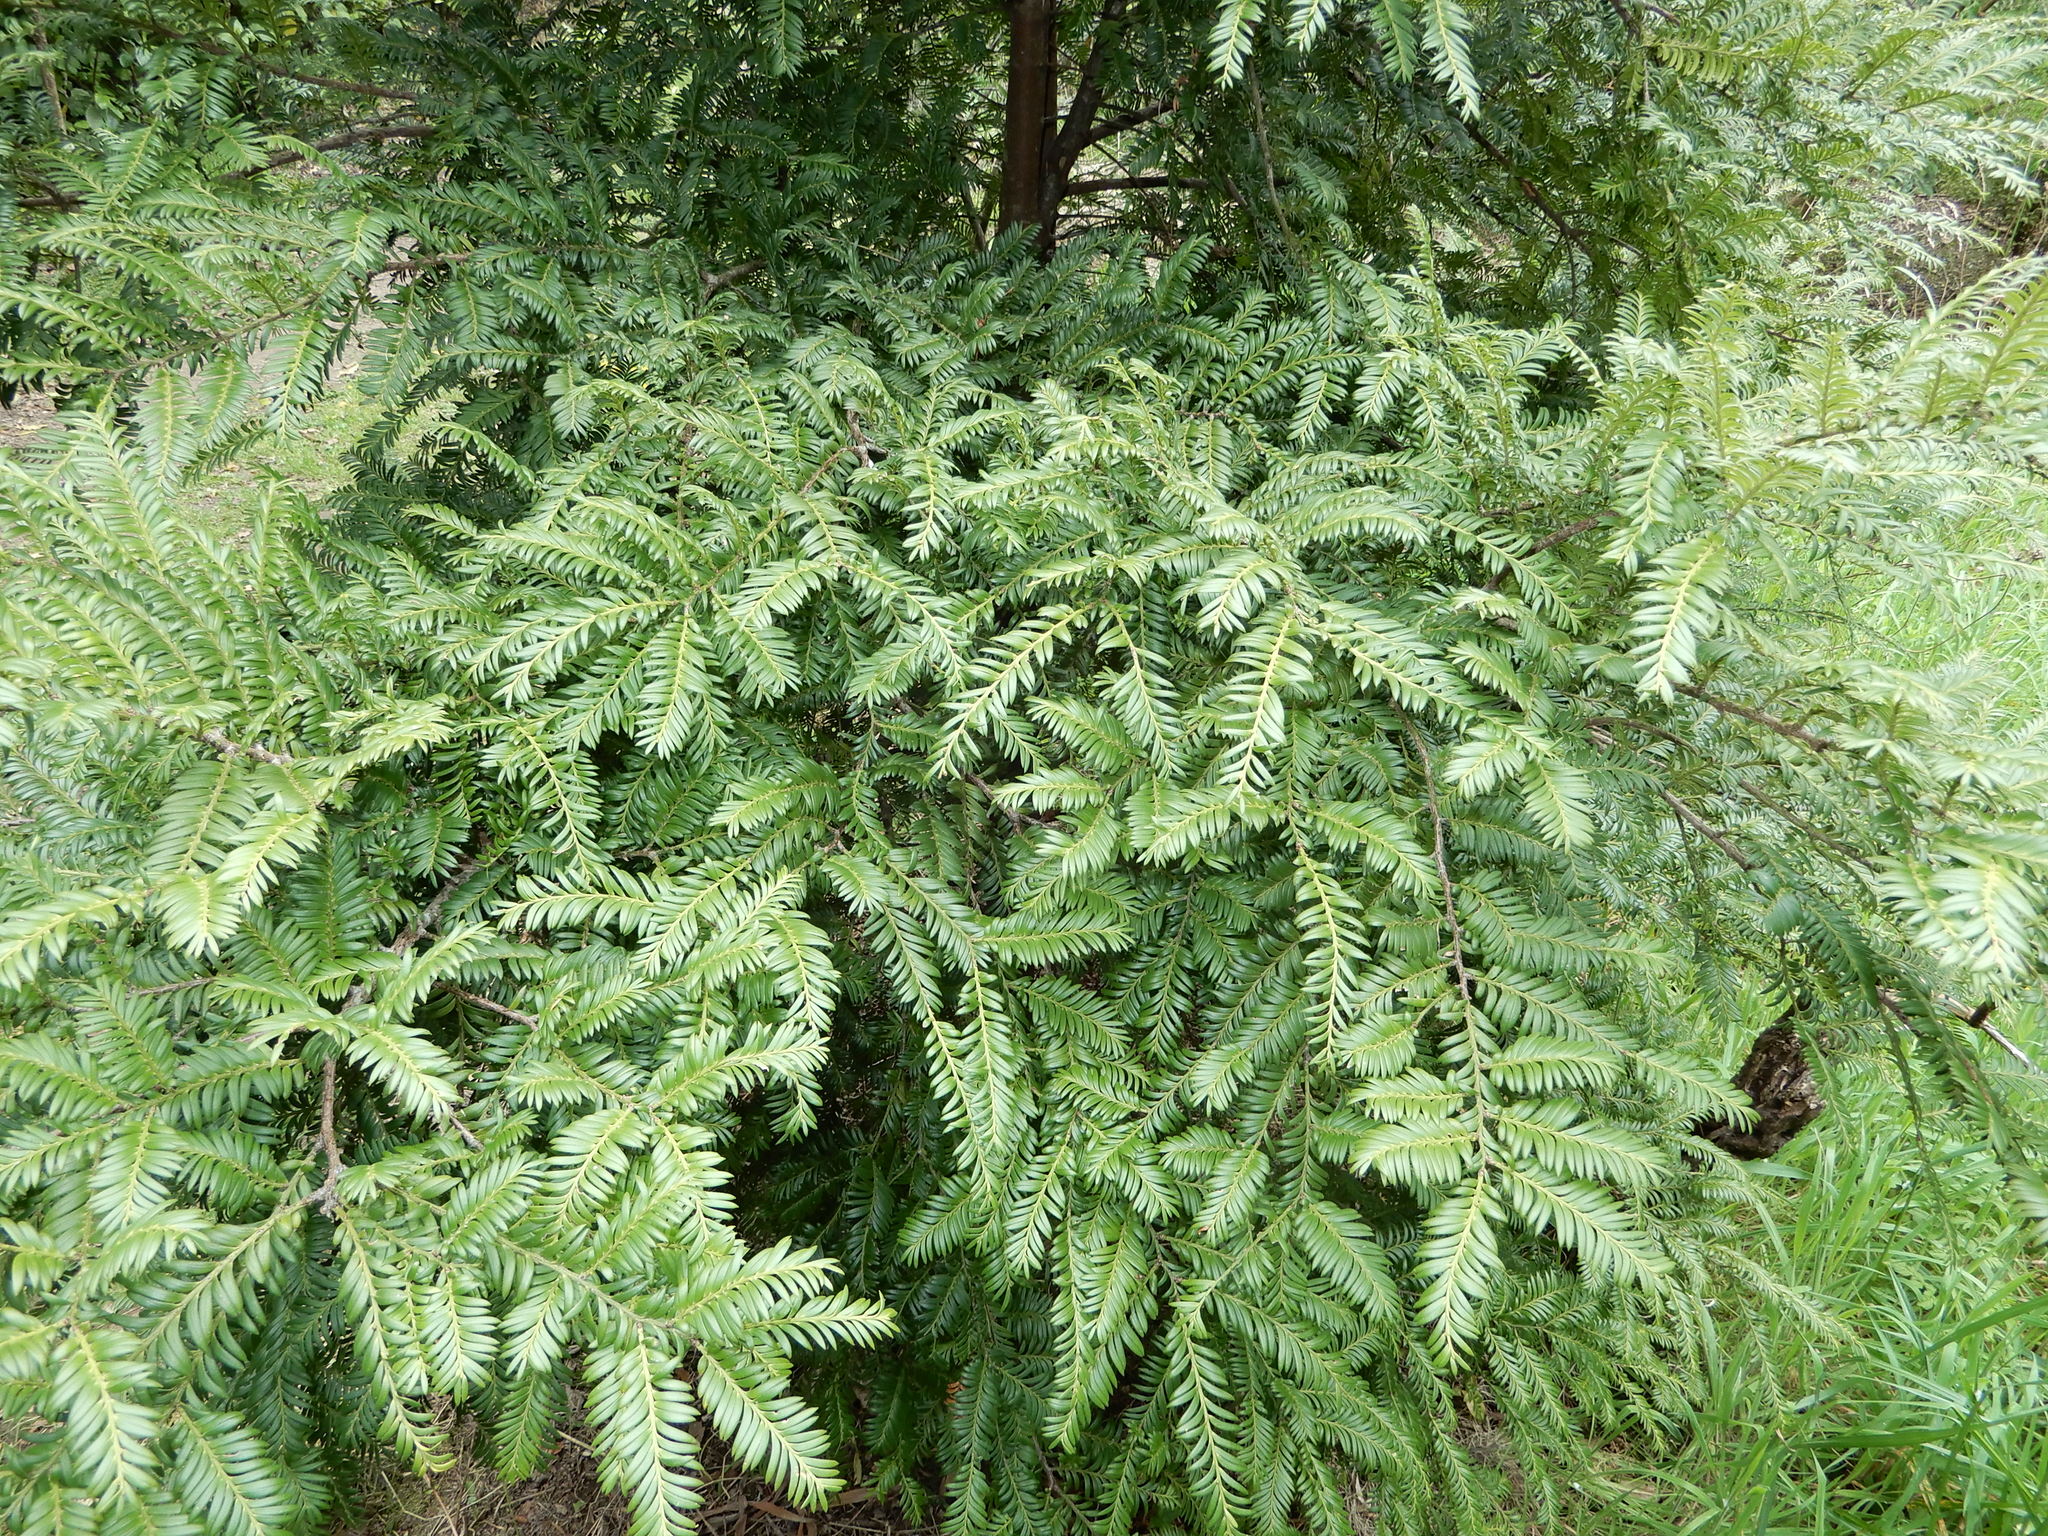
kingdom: Plantae
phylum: Tracheophyta
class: Pinopsida
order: Pinales
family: Podocarpaceae
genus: Prumnopitys
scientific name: Prumnopitys ferruginea
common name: Brown pine
